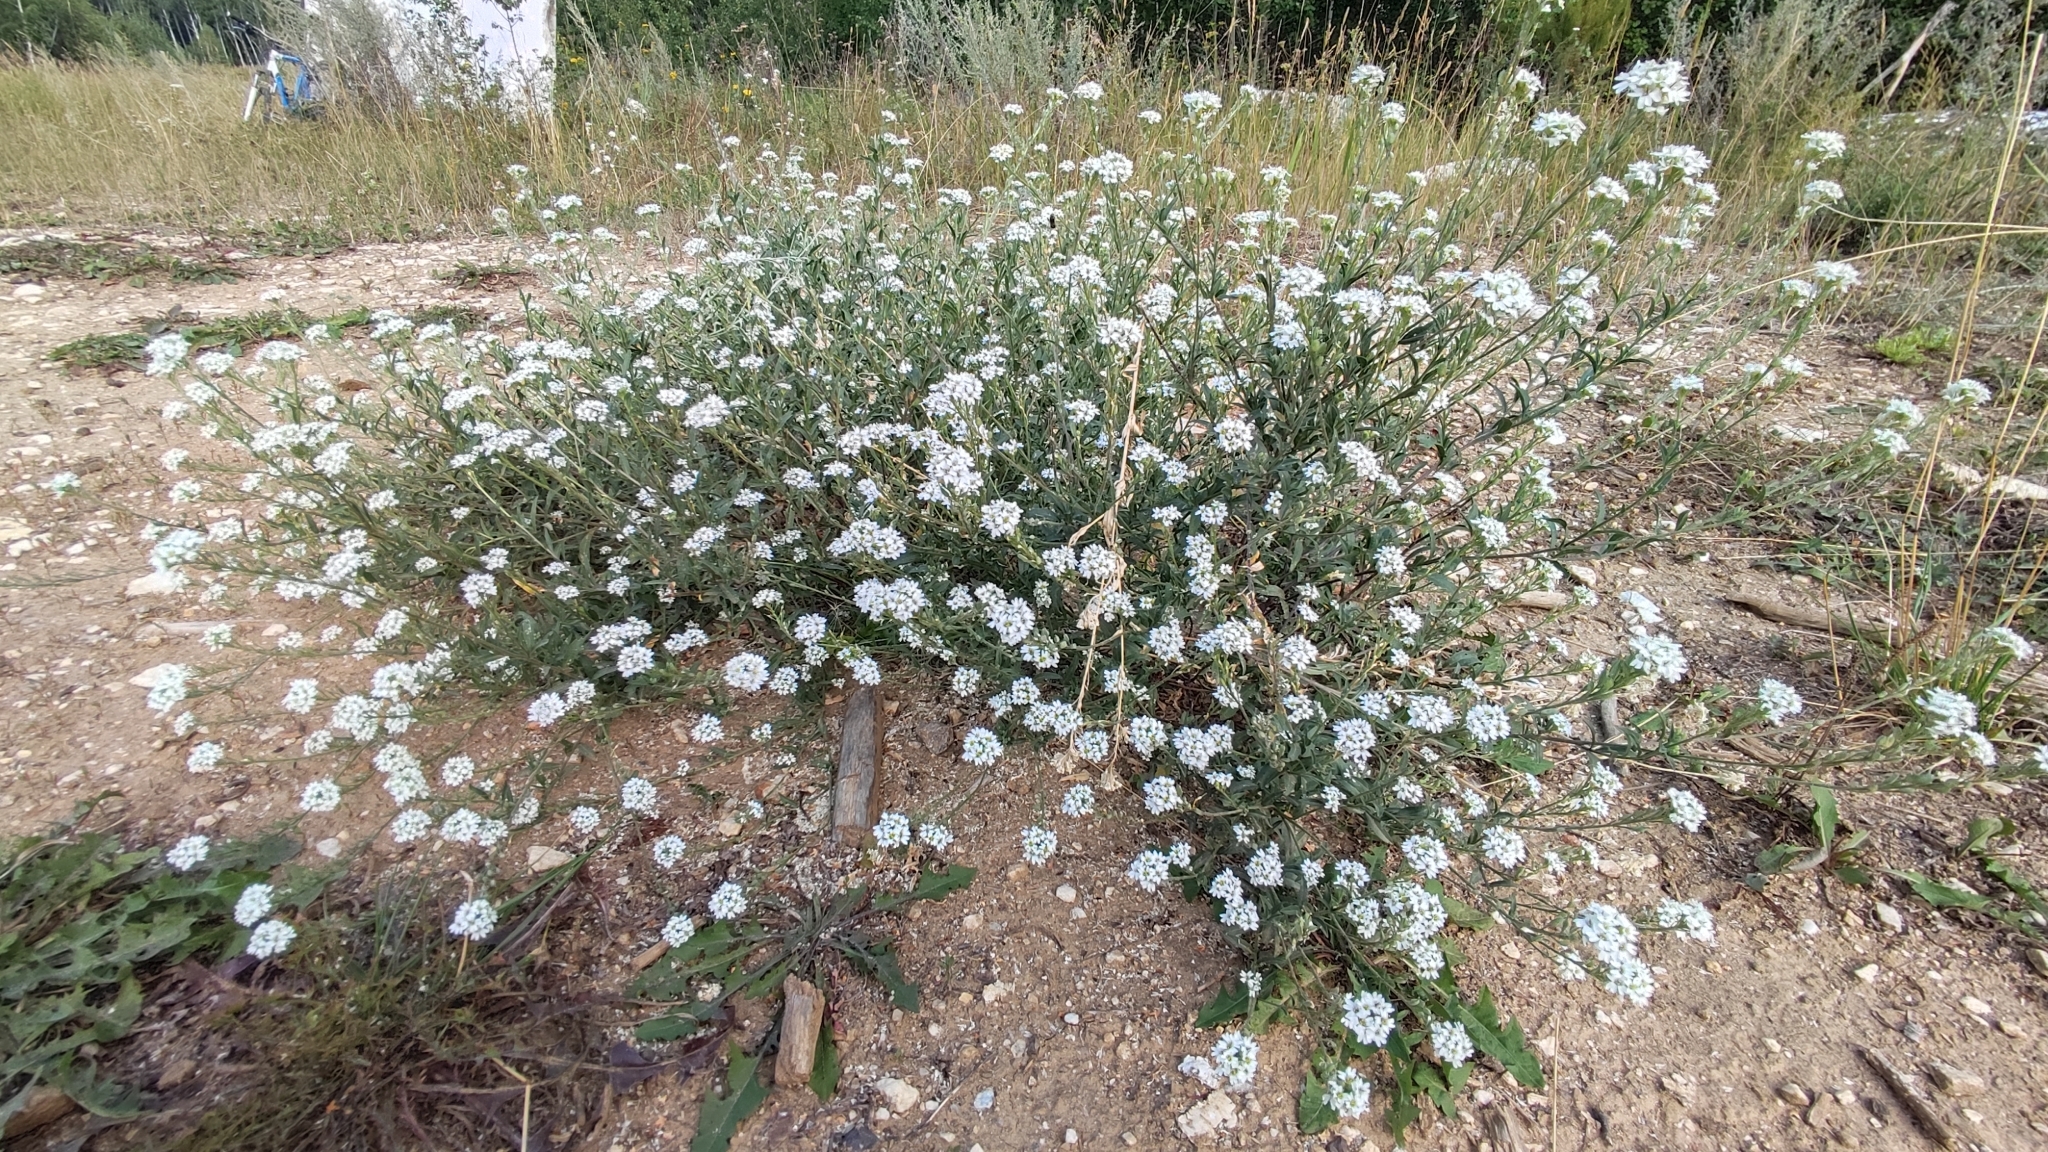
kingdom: Plantae
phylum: Tracheophyta
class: Magnoliopsida
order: Brassicales
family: Brassicaceae
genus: Berteroa
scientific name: Berteroa incana
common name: Hoary alison
